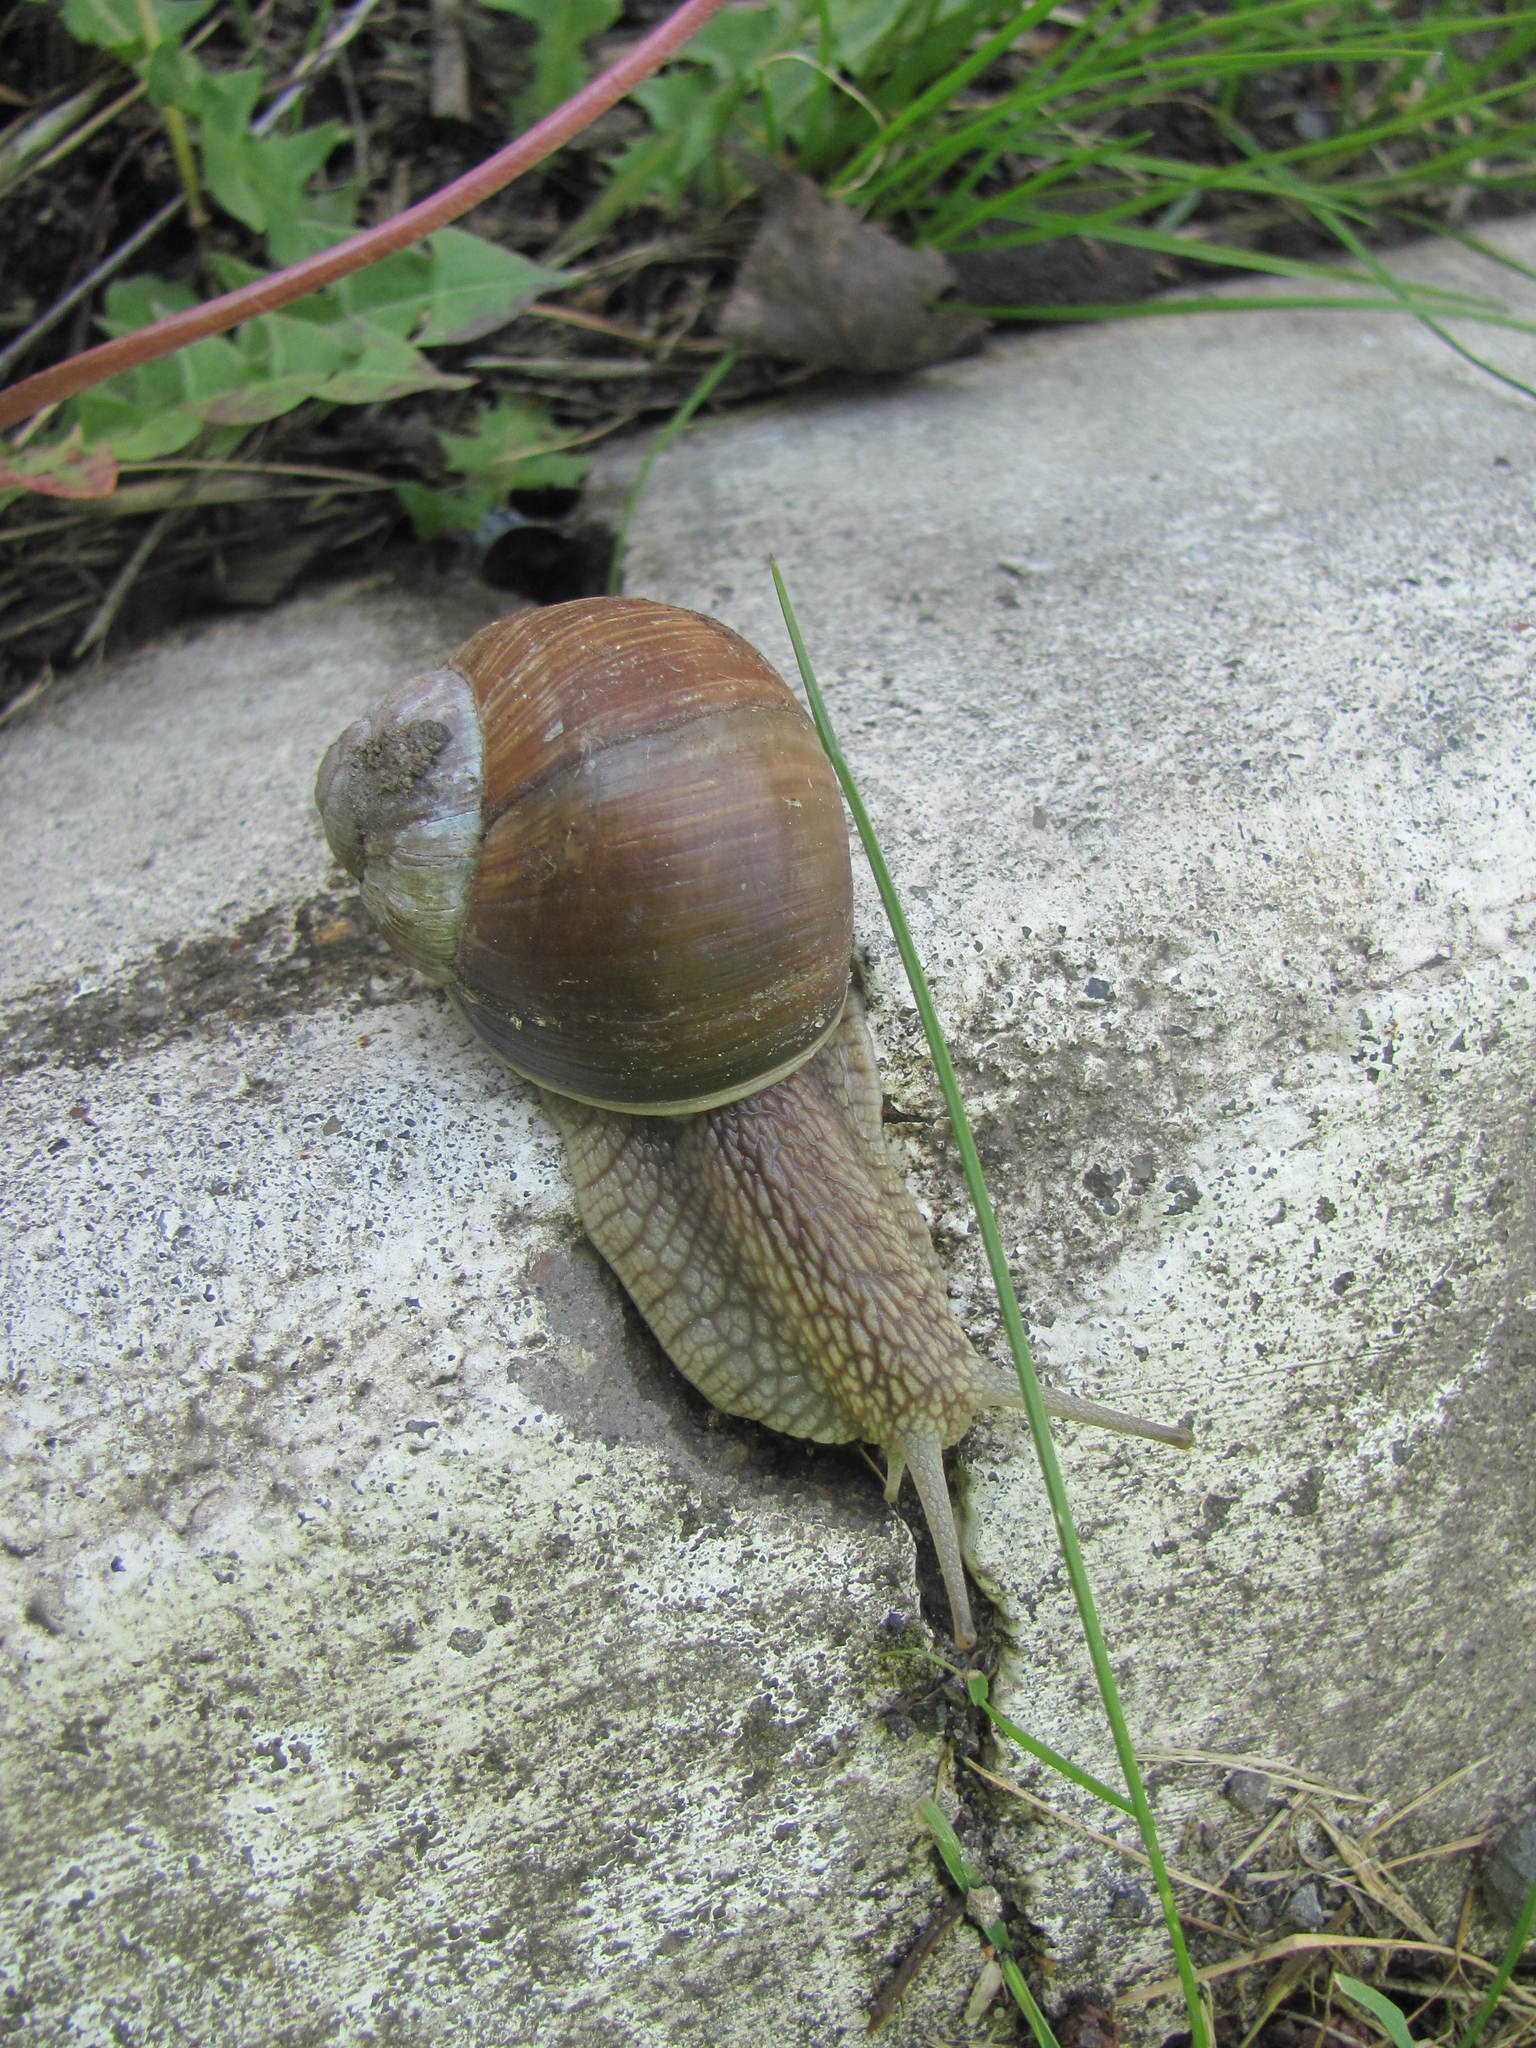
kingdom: Animalia
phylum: Mollusca
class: Gastropoda
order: Stylommatophora
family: Helicidae
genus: Helix
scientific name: Helix pomatia
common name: Roman snail
